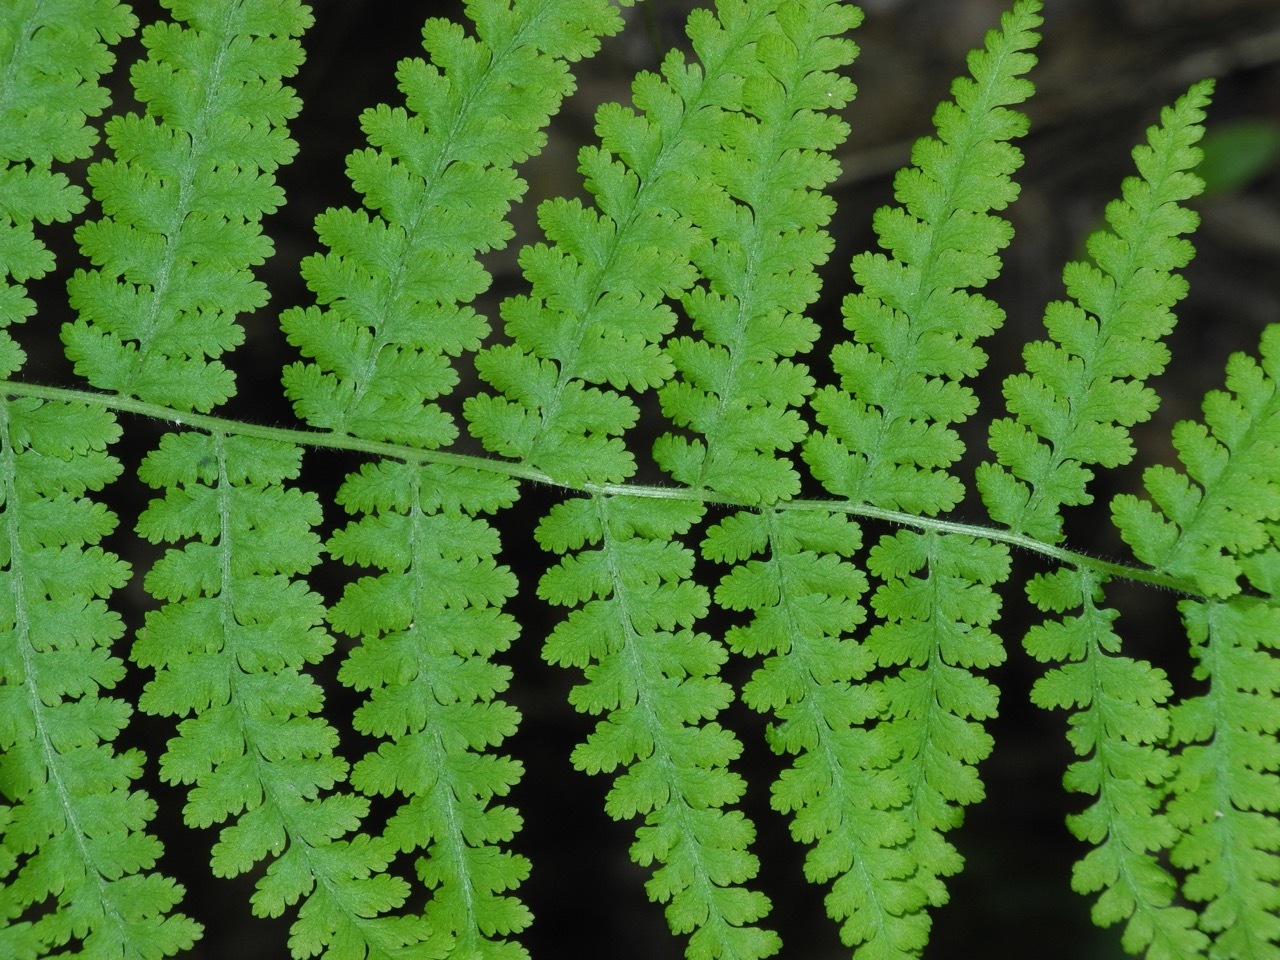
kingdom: Plantae
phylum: Tracheophyta
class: Polypodiopsida
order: Polypodiales
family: Dennstaedtiaceae
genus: Sitobolium
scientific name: Sitobolium punctilobum
